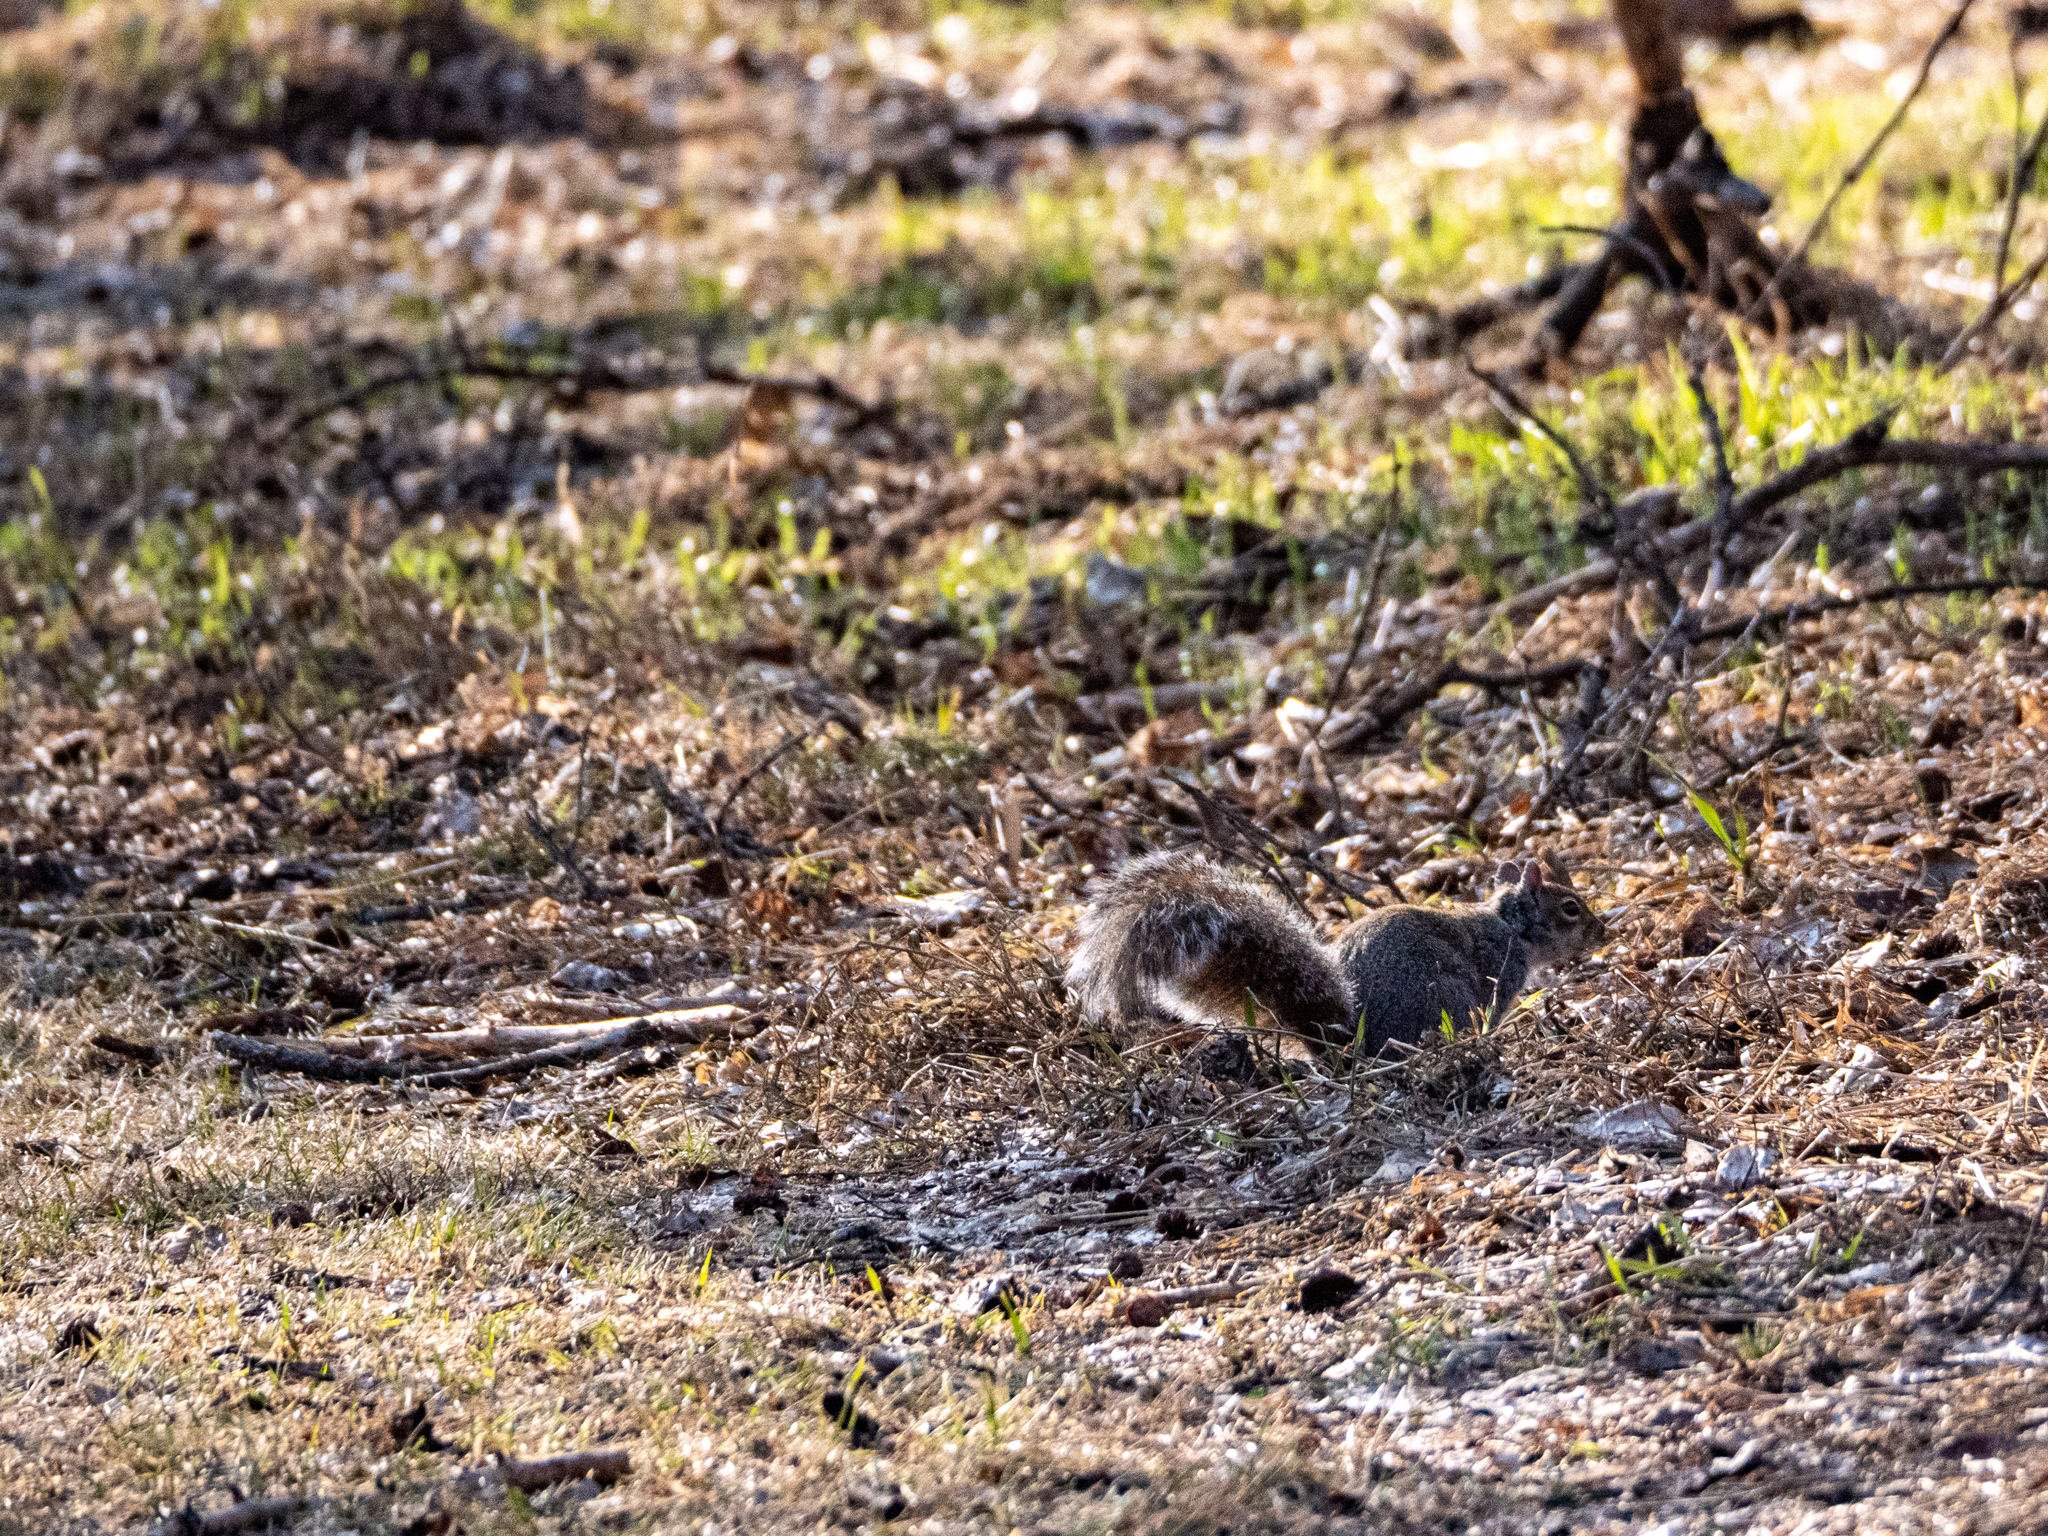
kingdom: Animalia
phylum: Chordata
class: Mammalia
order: Rodentia
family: Sciuridae
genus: Sciurus
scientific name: Sciurus carolinensis
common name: Eastern gray squirrel
